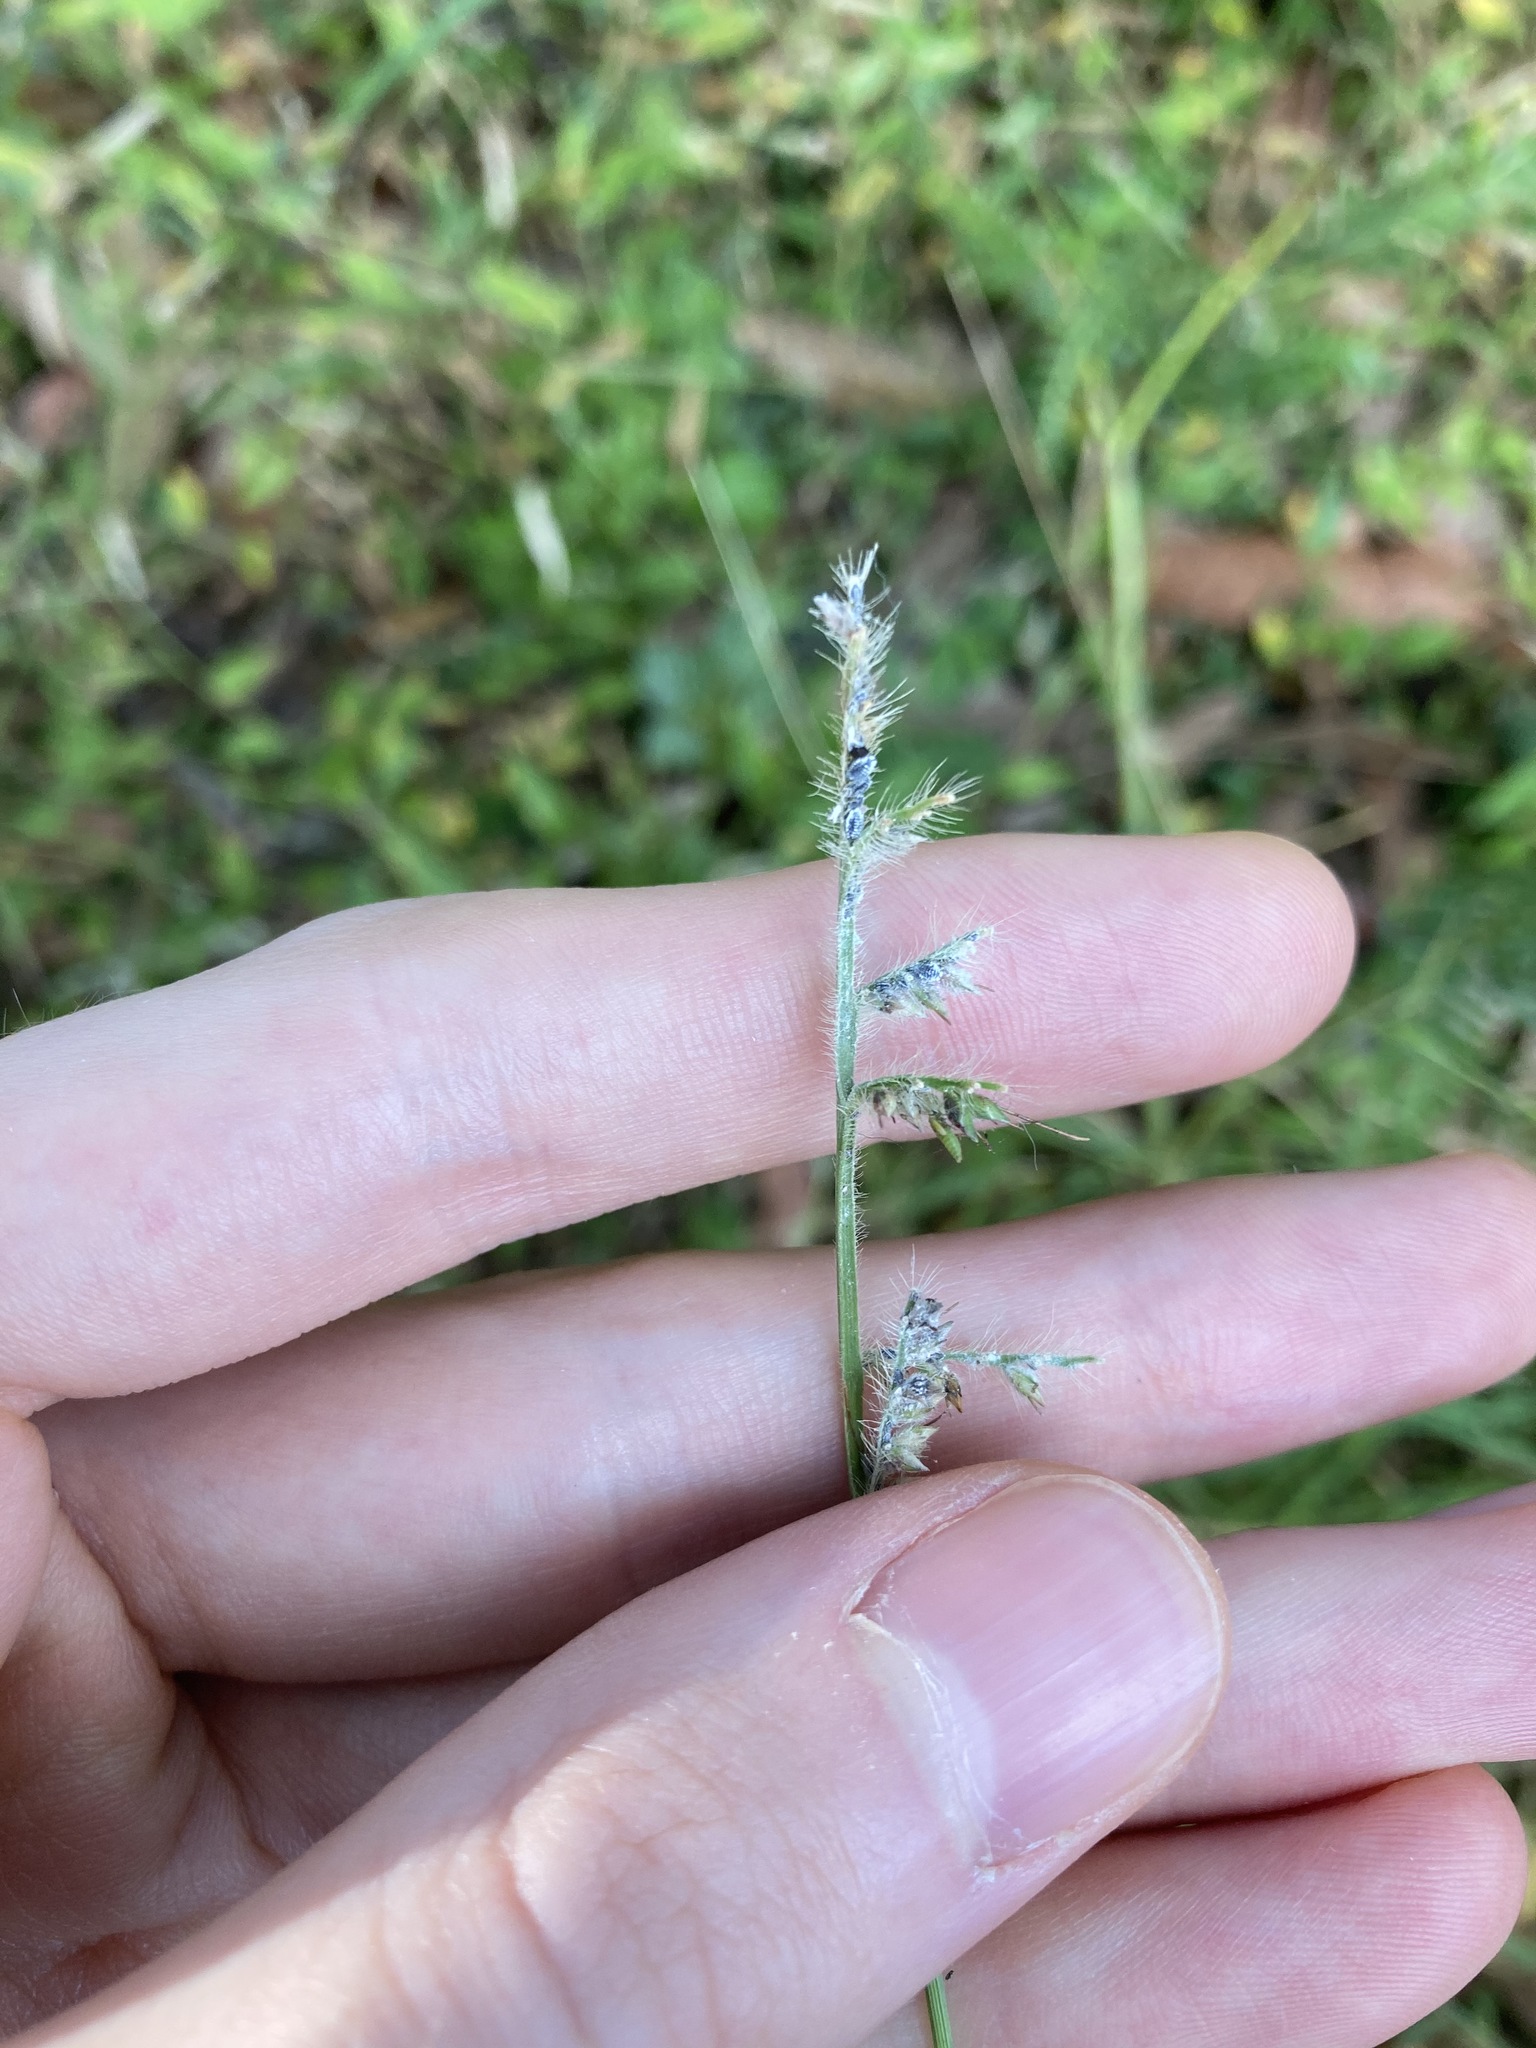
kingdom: Plantae
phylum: Tracheophyta
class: Liliopsida
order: Poales
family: Poaceae
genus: Oplismenus
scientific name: Oplismenus hirtellus
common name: Basketgrass
